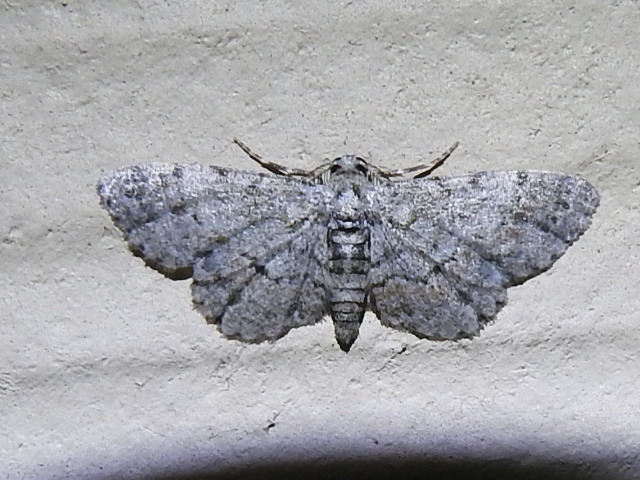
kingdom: Animalia
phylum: Arthropoda
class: Insecta
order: Lepidoptera
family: Geometridae
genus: Glenoides
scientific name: Glenoides texanaria
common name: Texas gray
